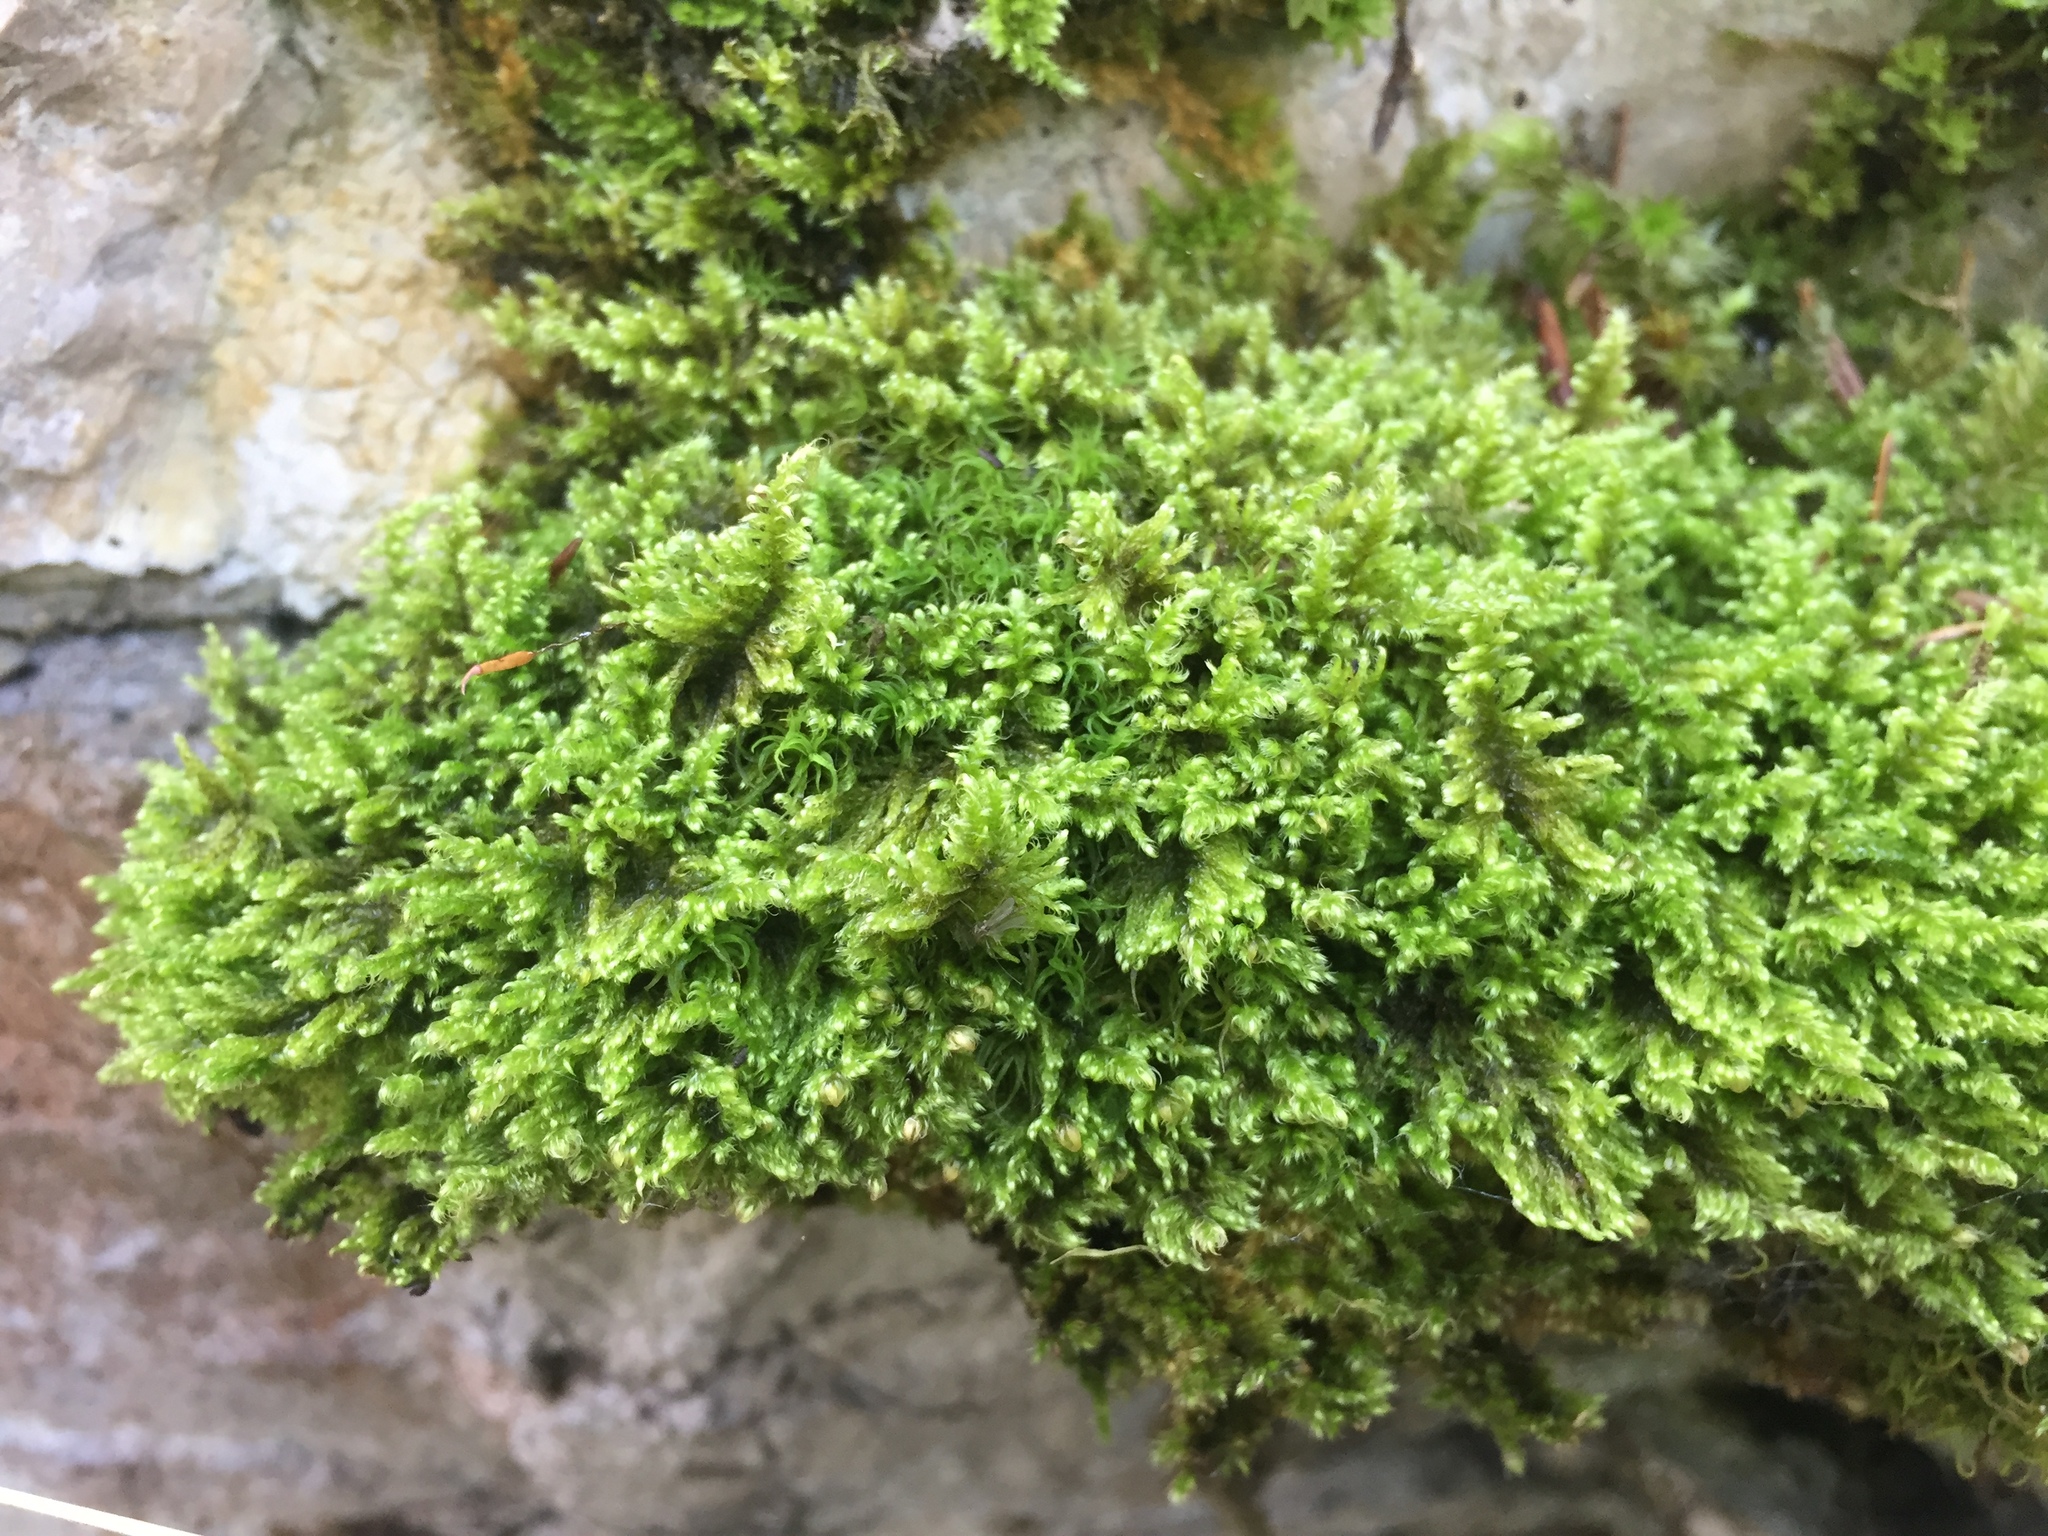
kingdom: Plantae
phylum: Bryophyta
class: Bryopsida
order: Hypnales
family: Myuriaceae
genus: Ctenidium
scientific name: Ctenidium molluscum
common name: Chalk comb-moss
